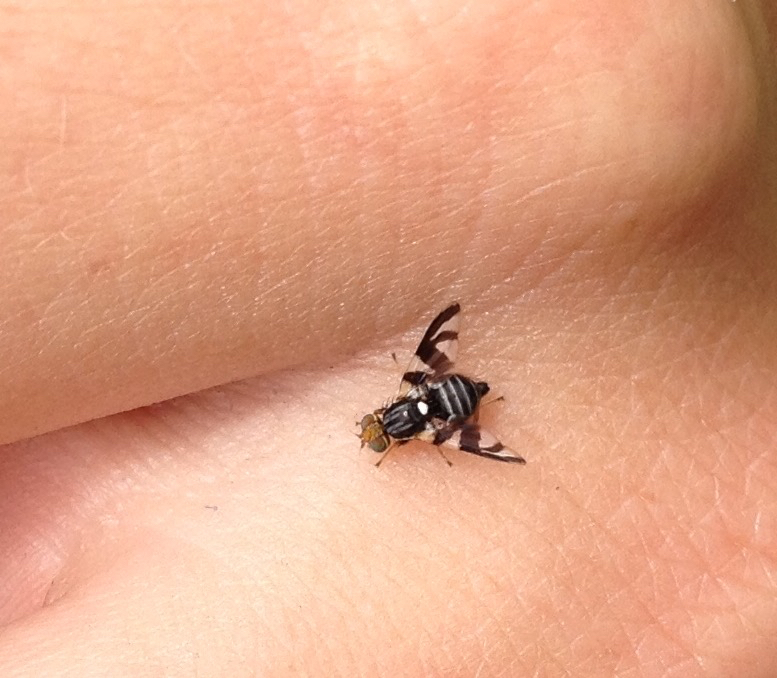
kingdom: Animalia
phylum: Arthropoda
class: Insecta
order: Diptera
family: Tephritidae
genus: Rhagoletis
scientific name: Rhagoletis pomonella
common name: Apple maggot
